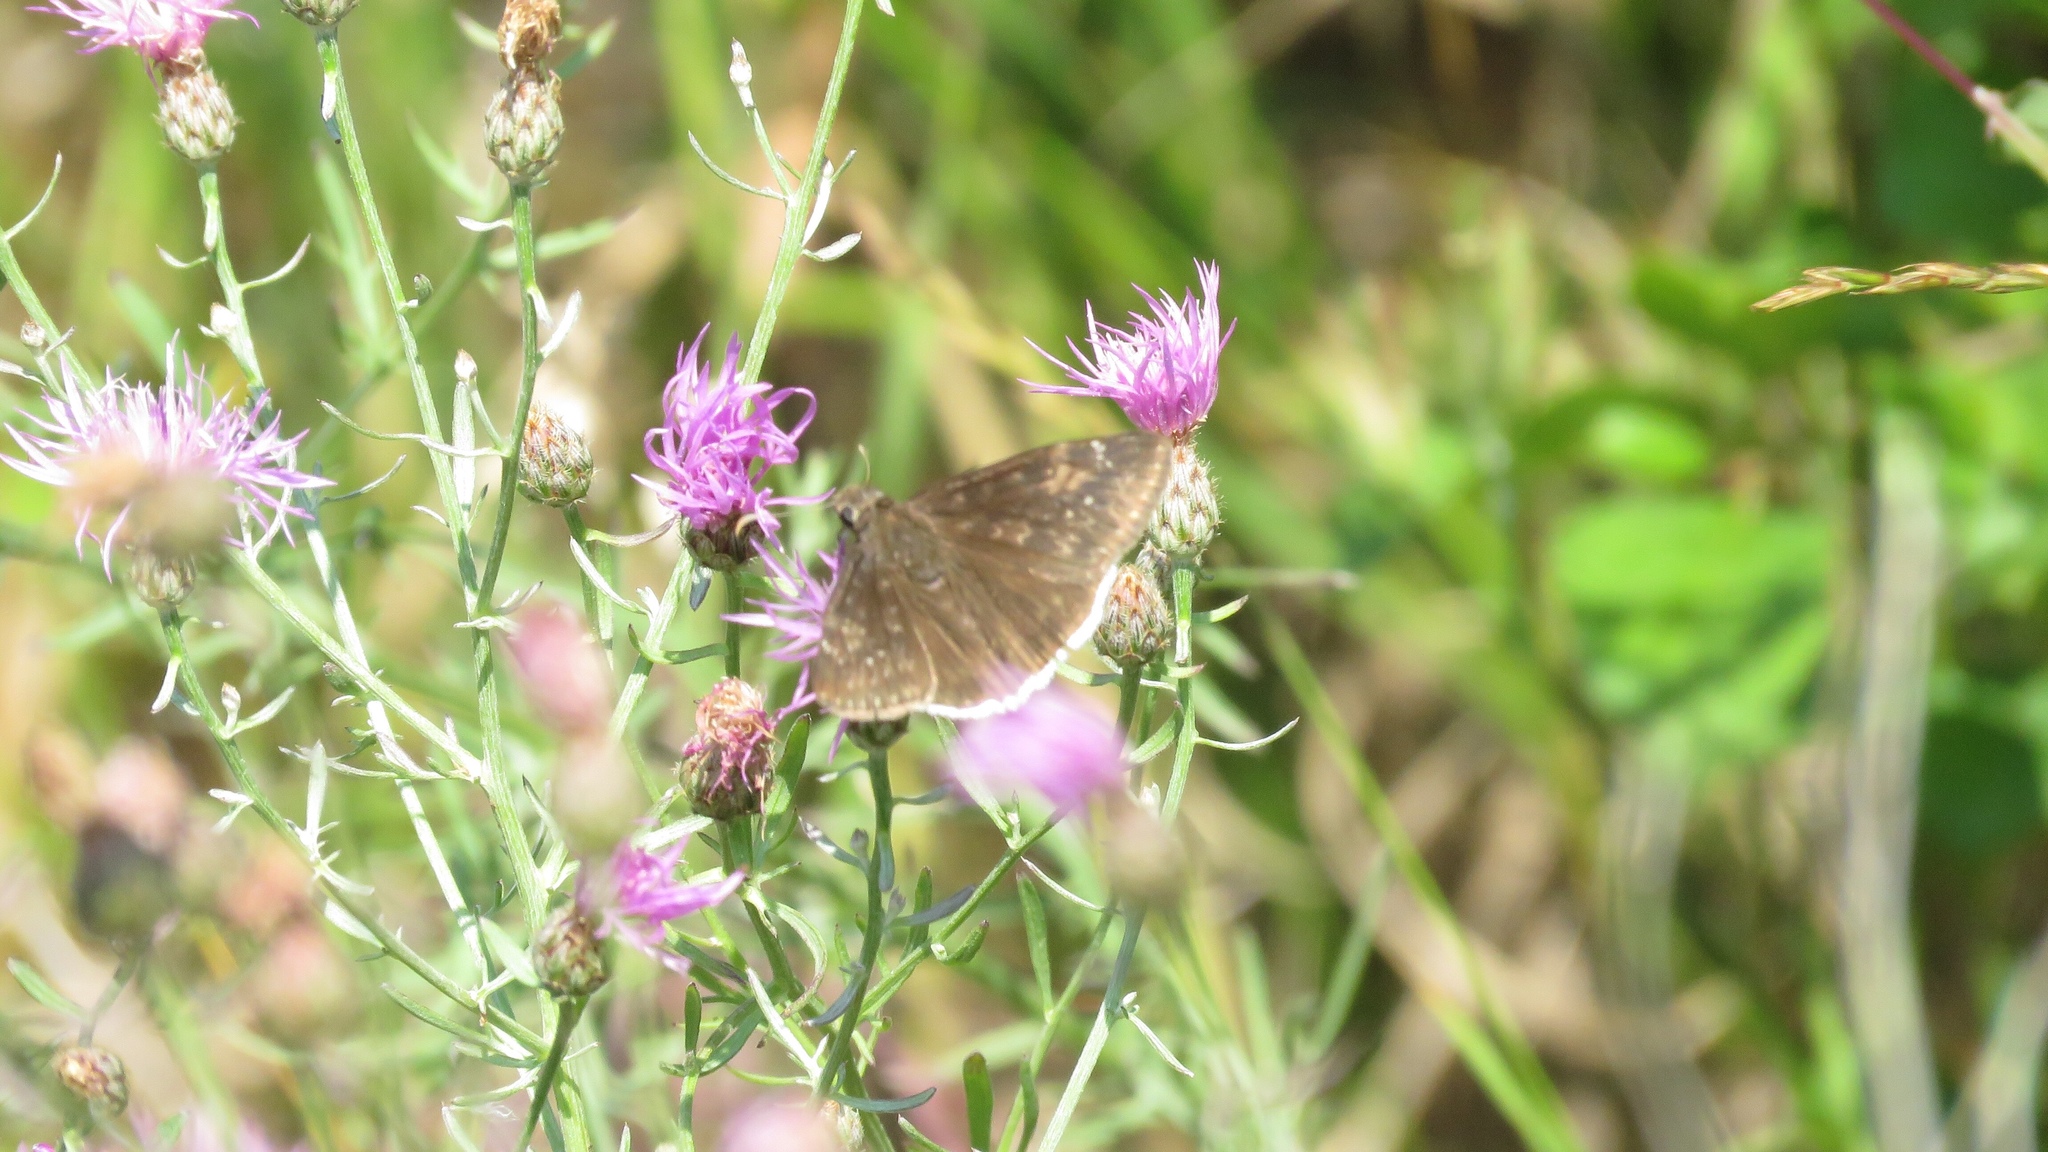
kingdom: Animalia
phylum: Arthropoda
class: Insecta
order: Lepidoptera
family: Hesperiidae
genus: Erynnis
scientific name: Erynnis funeralis
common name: Funereal duskywing
